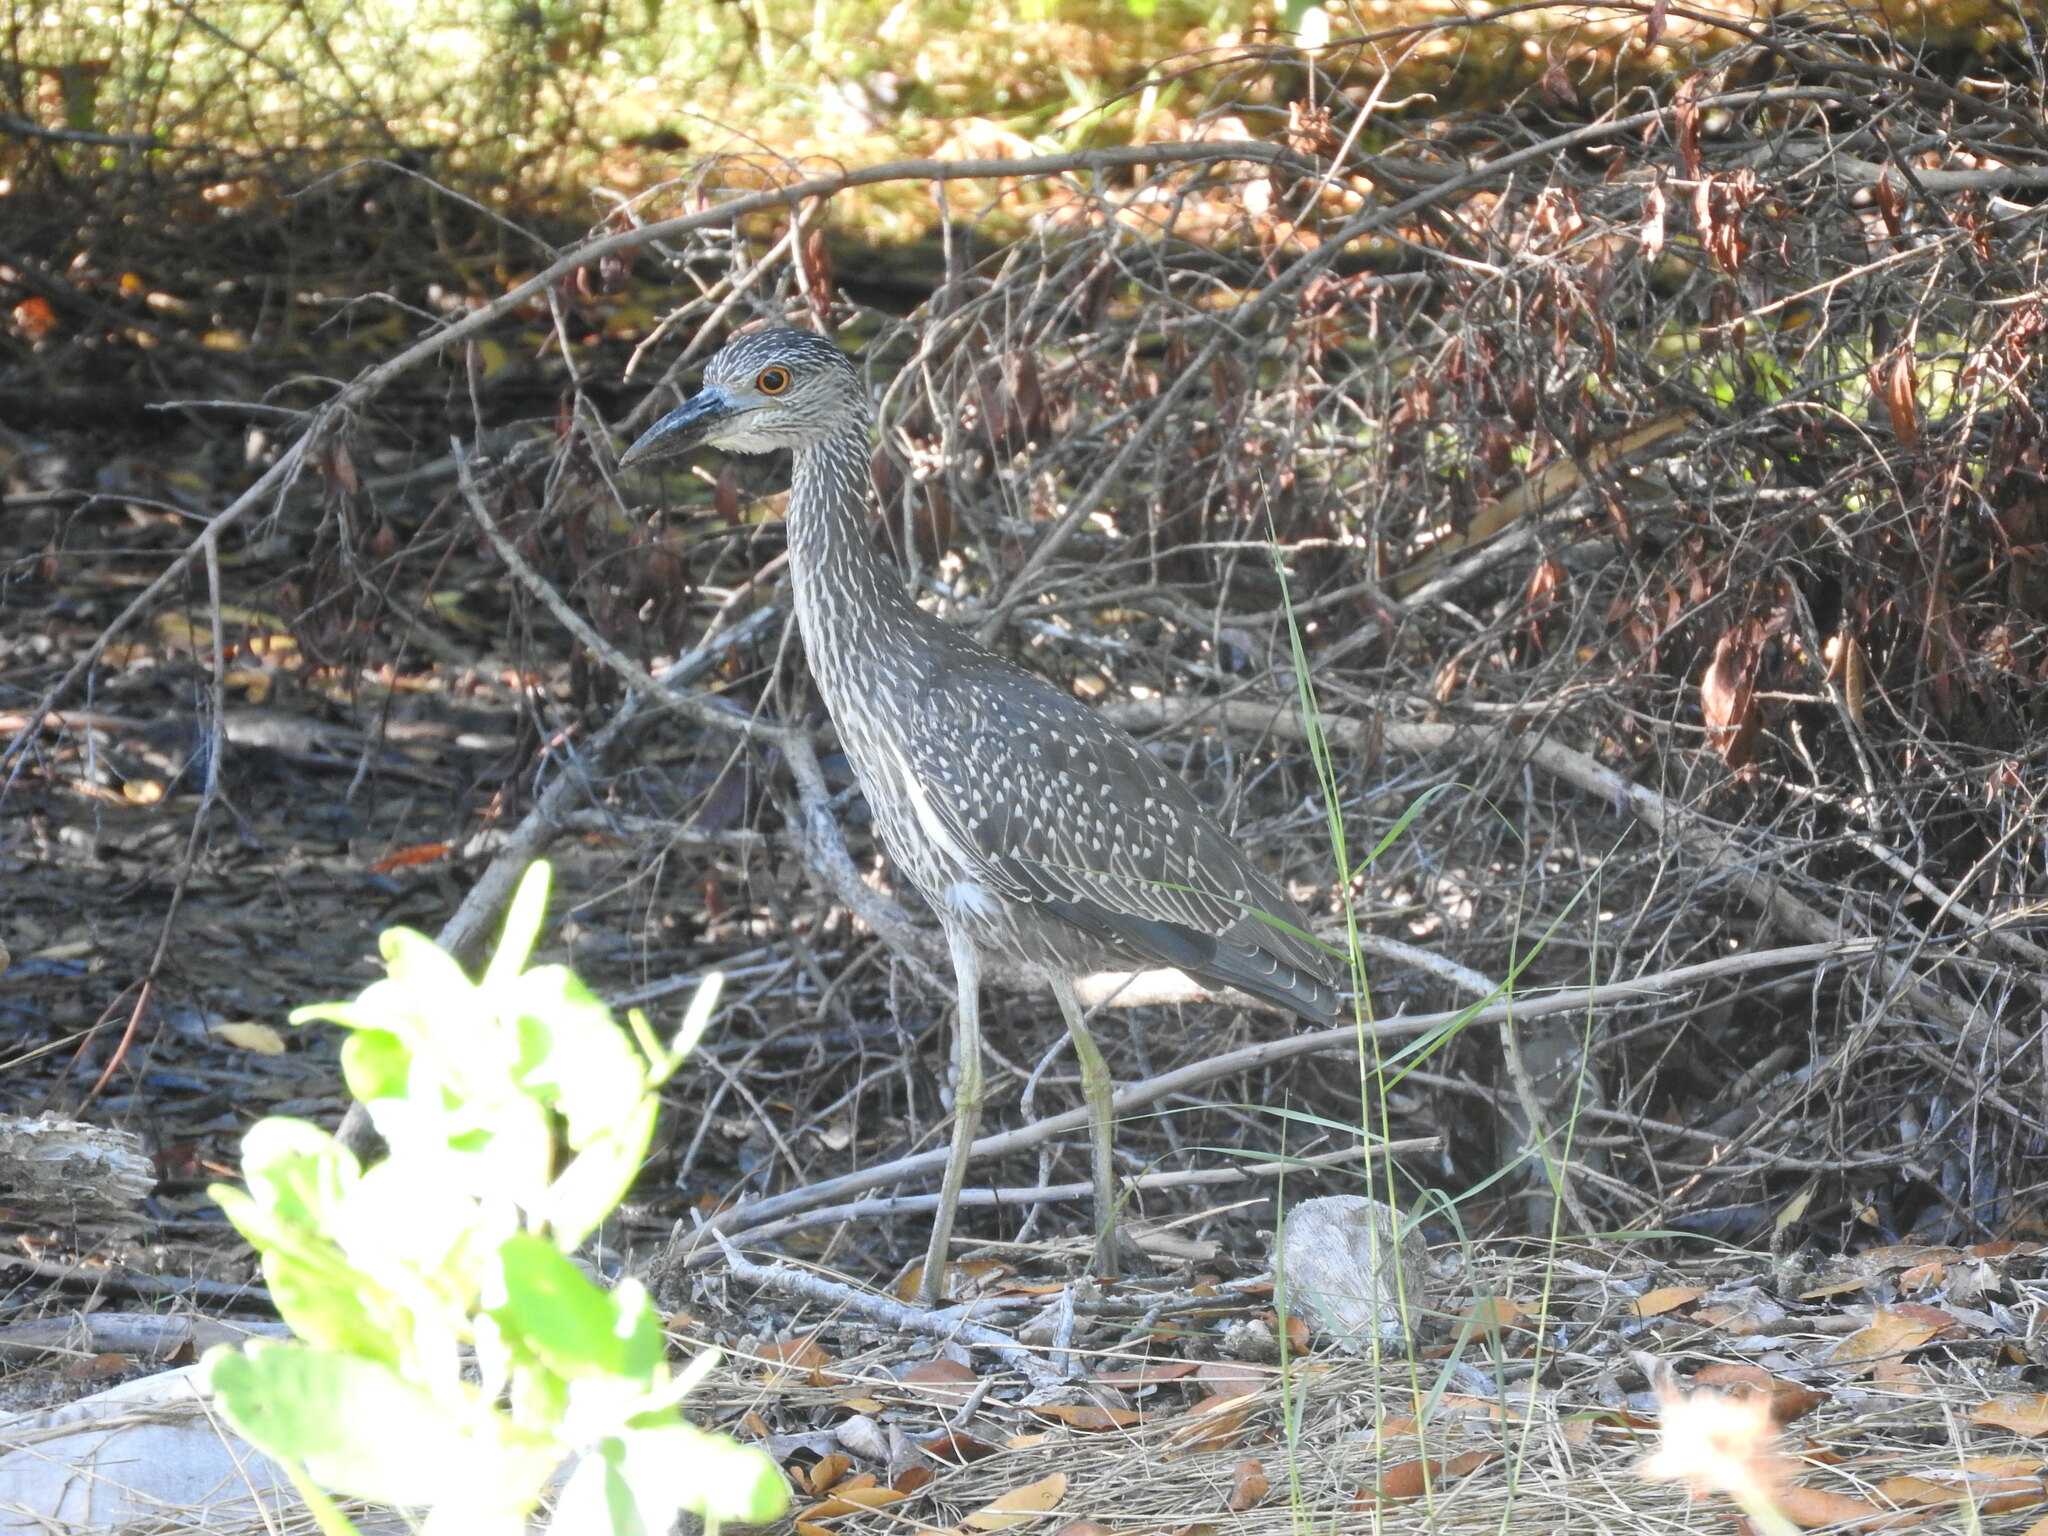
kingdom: Animalia
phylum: Chordata
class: Aves
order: Pelecaniformes
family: Ardeidae
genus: Nyctanassa
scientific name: Nyctanassa violacea
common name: Yellow-crowned night heron
